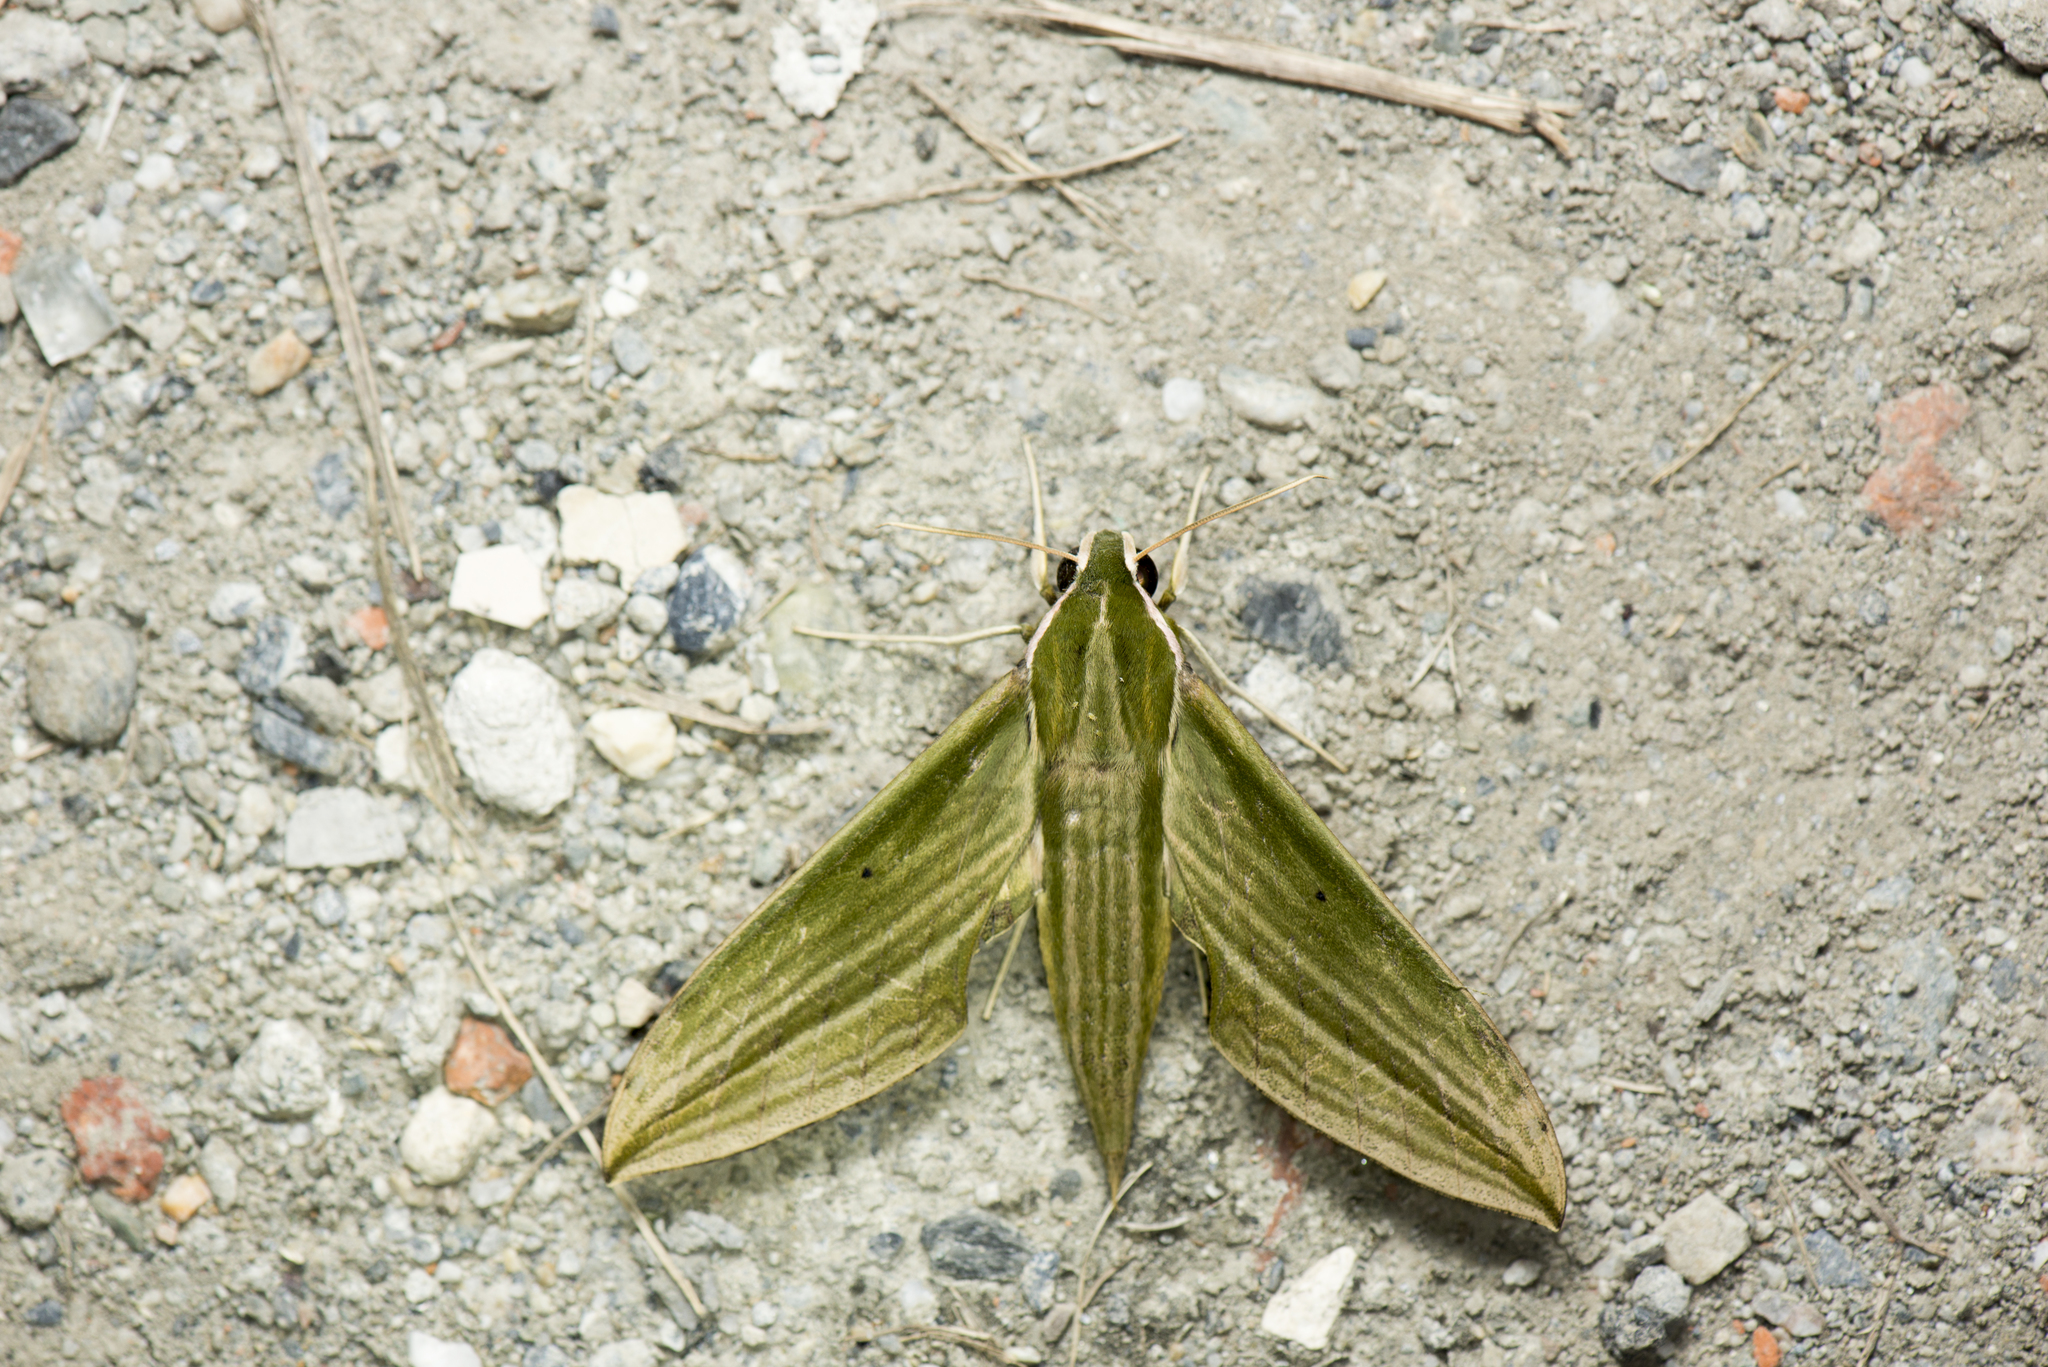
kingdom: Animalia
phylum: Arthropoda
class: Insecta
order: Lepidoptera
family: Sphingidae
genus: Cechetra
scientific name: Cechetra subangustata
